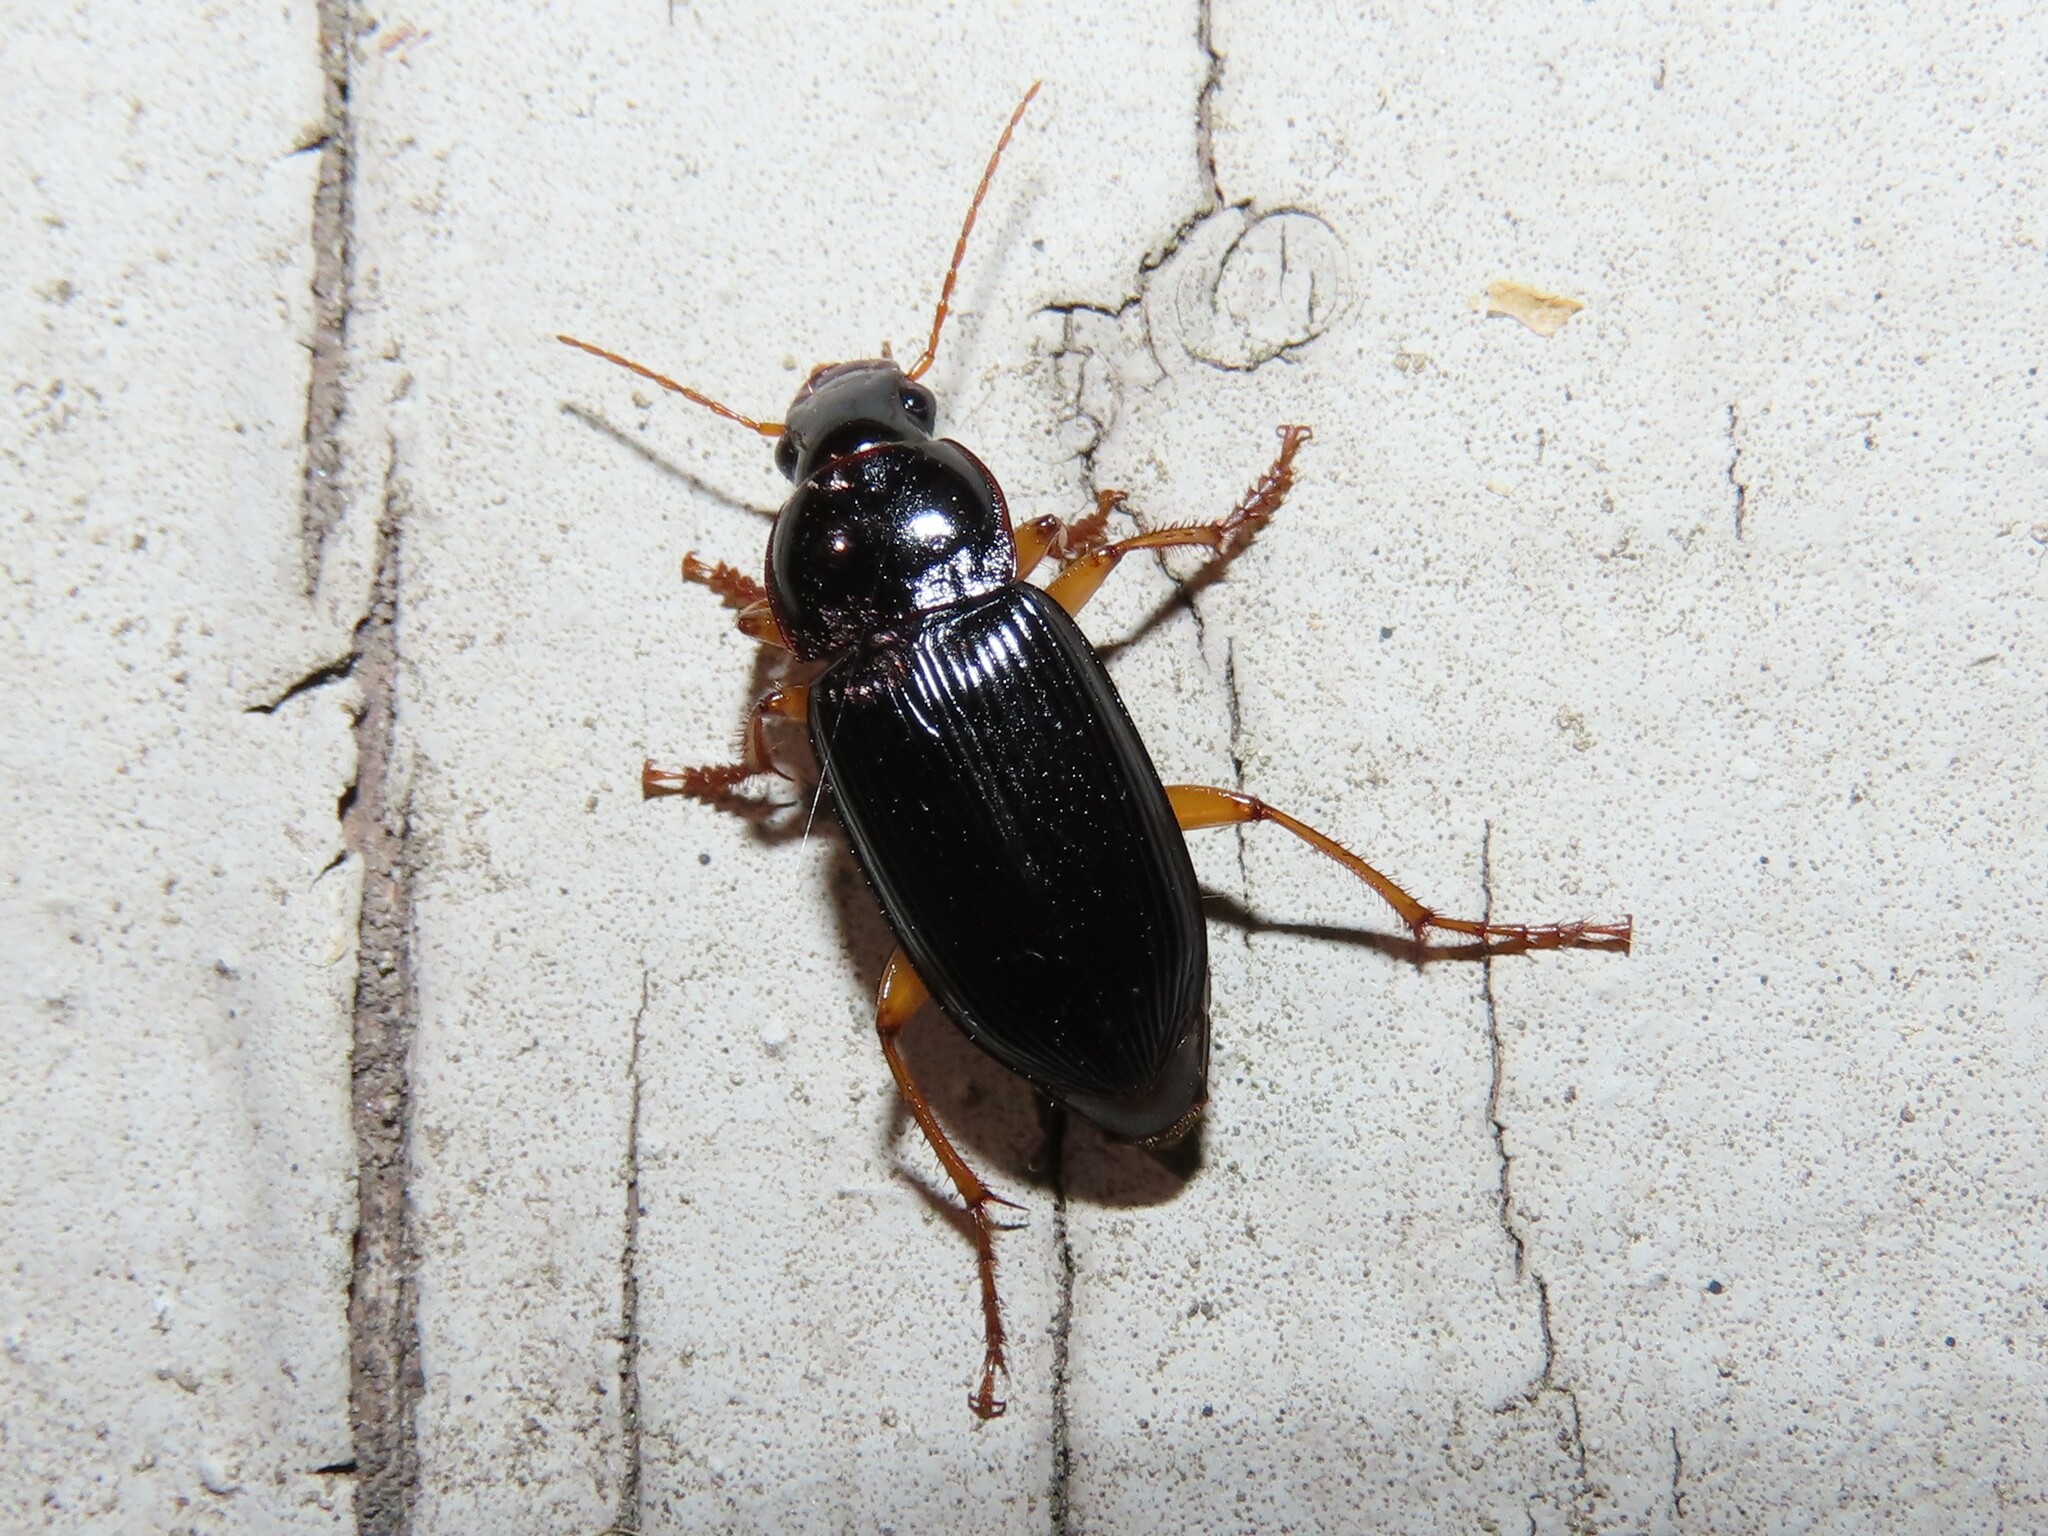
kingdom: Animalia
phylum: Arthropoda
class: Insecta
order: Coleoptera
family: Carabidae
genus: Harpalus
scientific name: Harpalus pensylvanicus
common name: Pennsylvania dingy ground beetle
